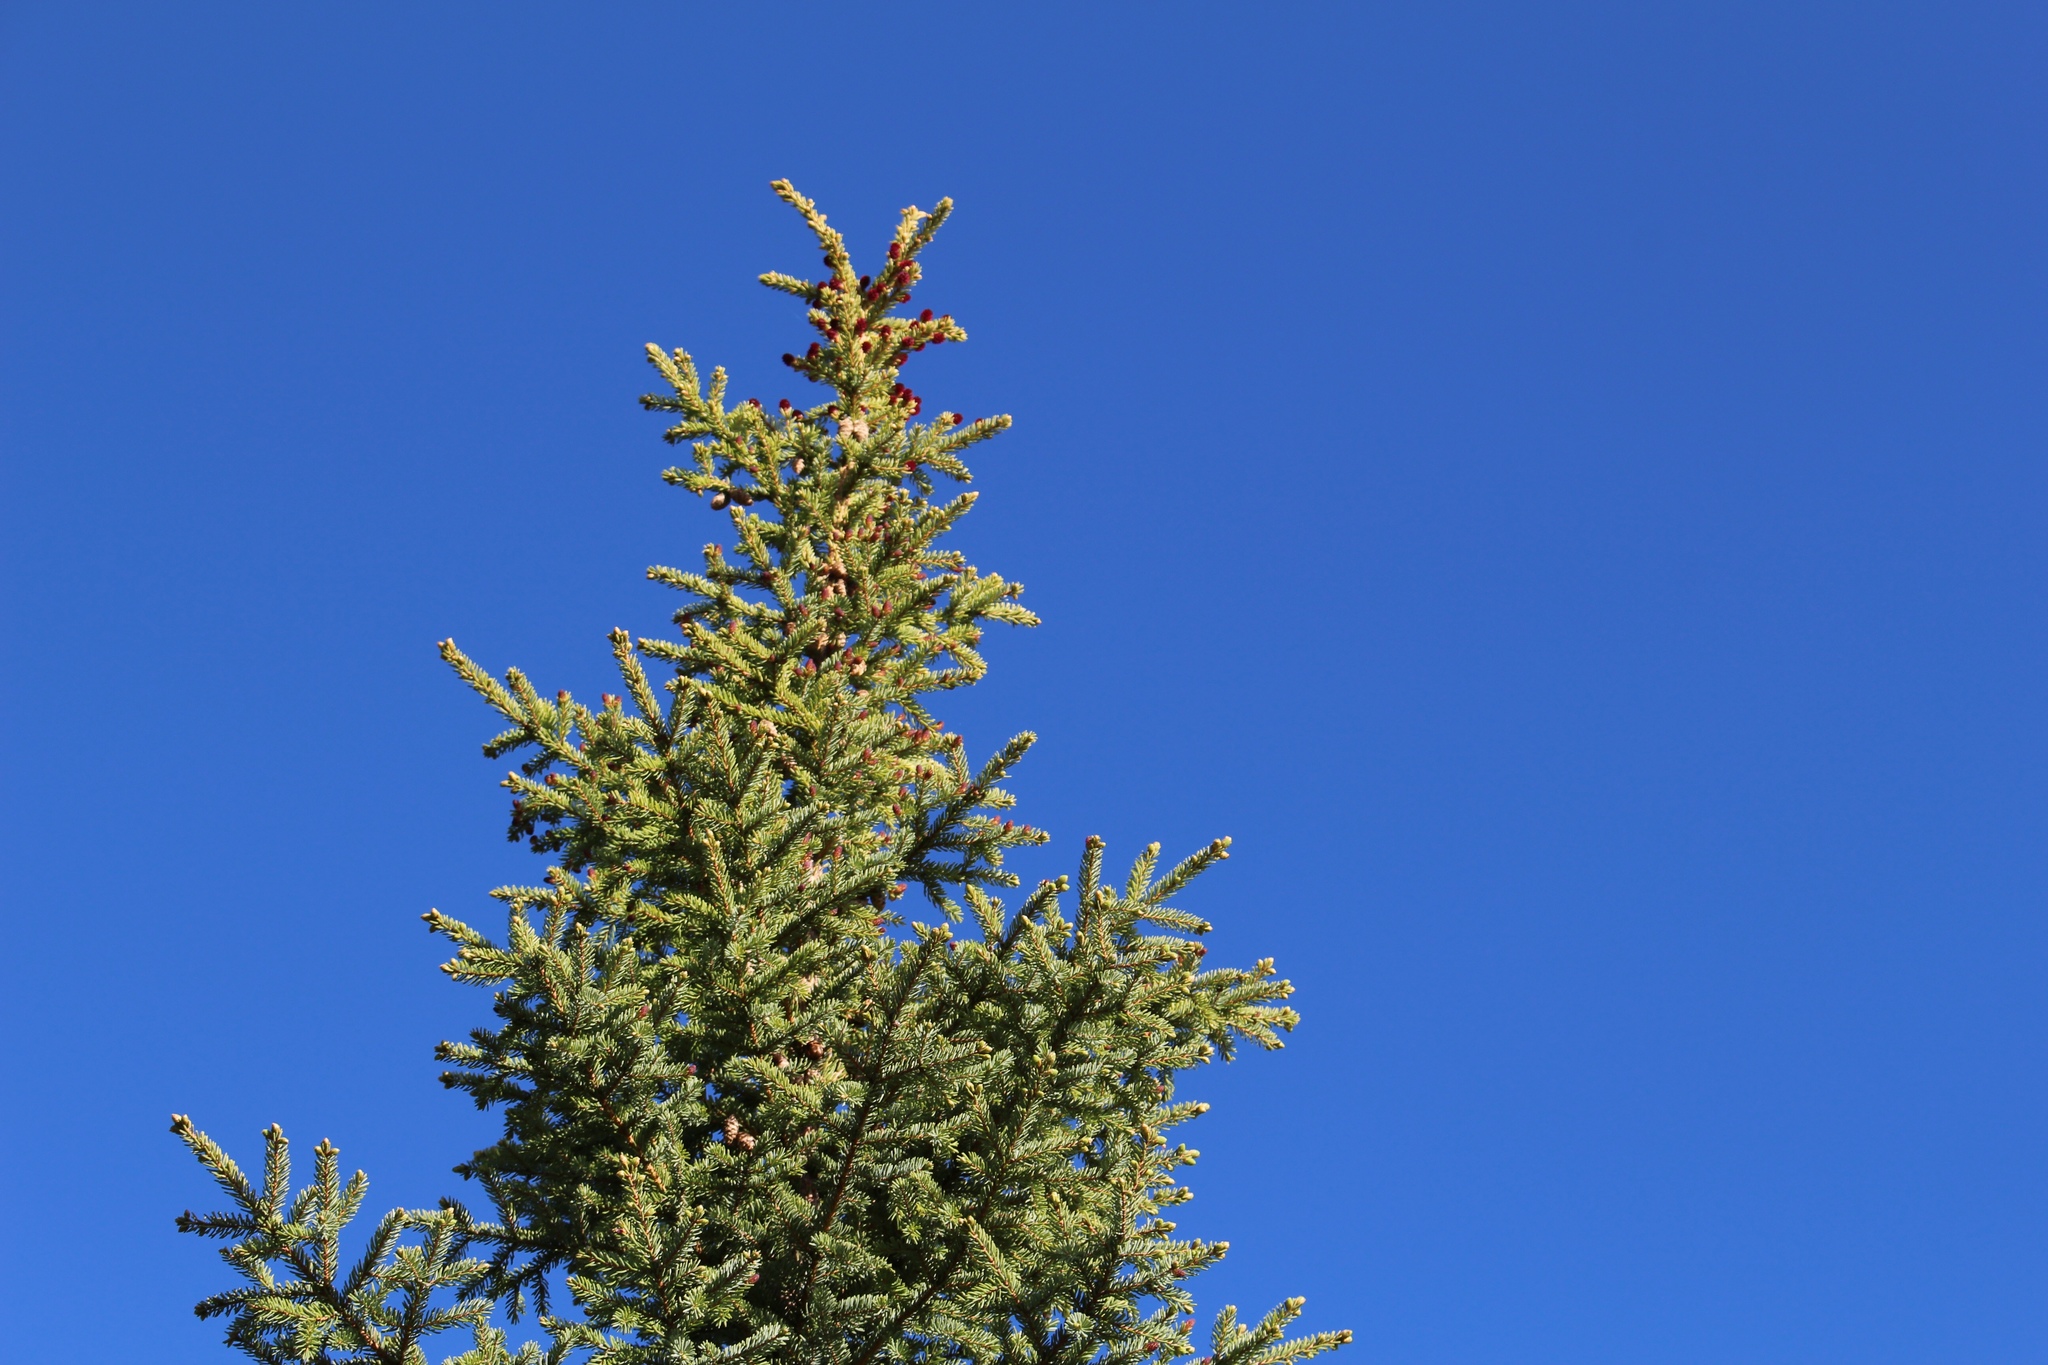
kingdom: Plantae
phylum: Tracheophyta
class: Pinopsida
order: Pinales
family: Pinaceae
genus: Picea
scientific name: Picea glauca
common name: White spruce
